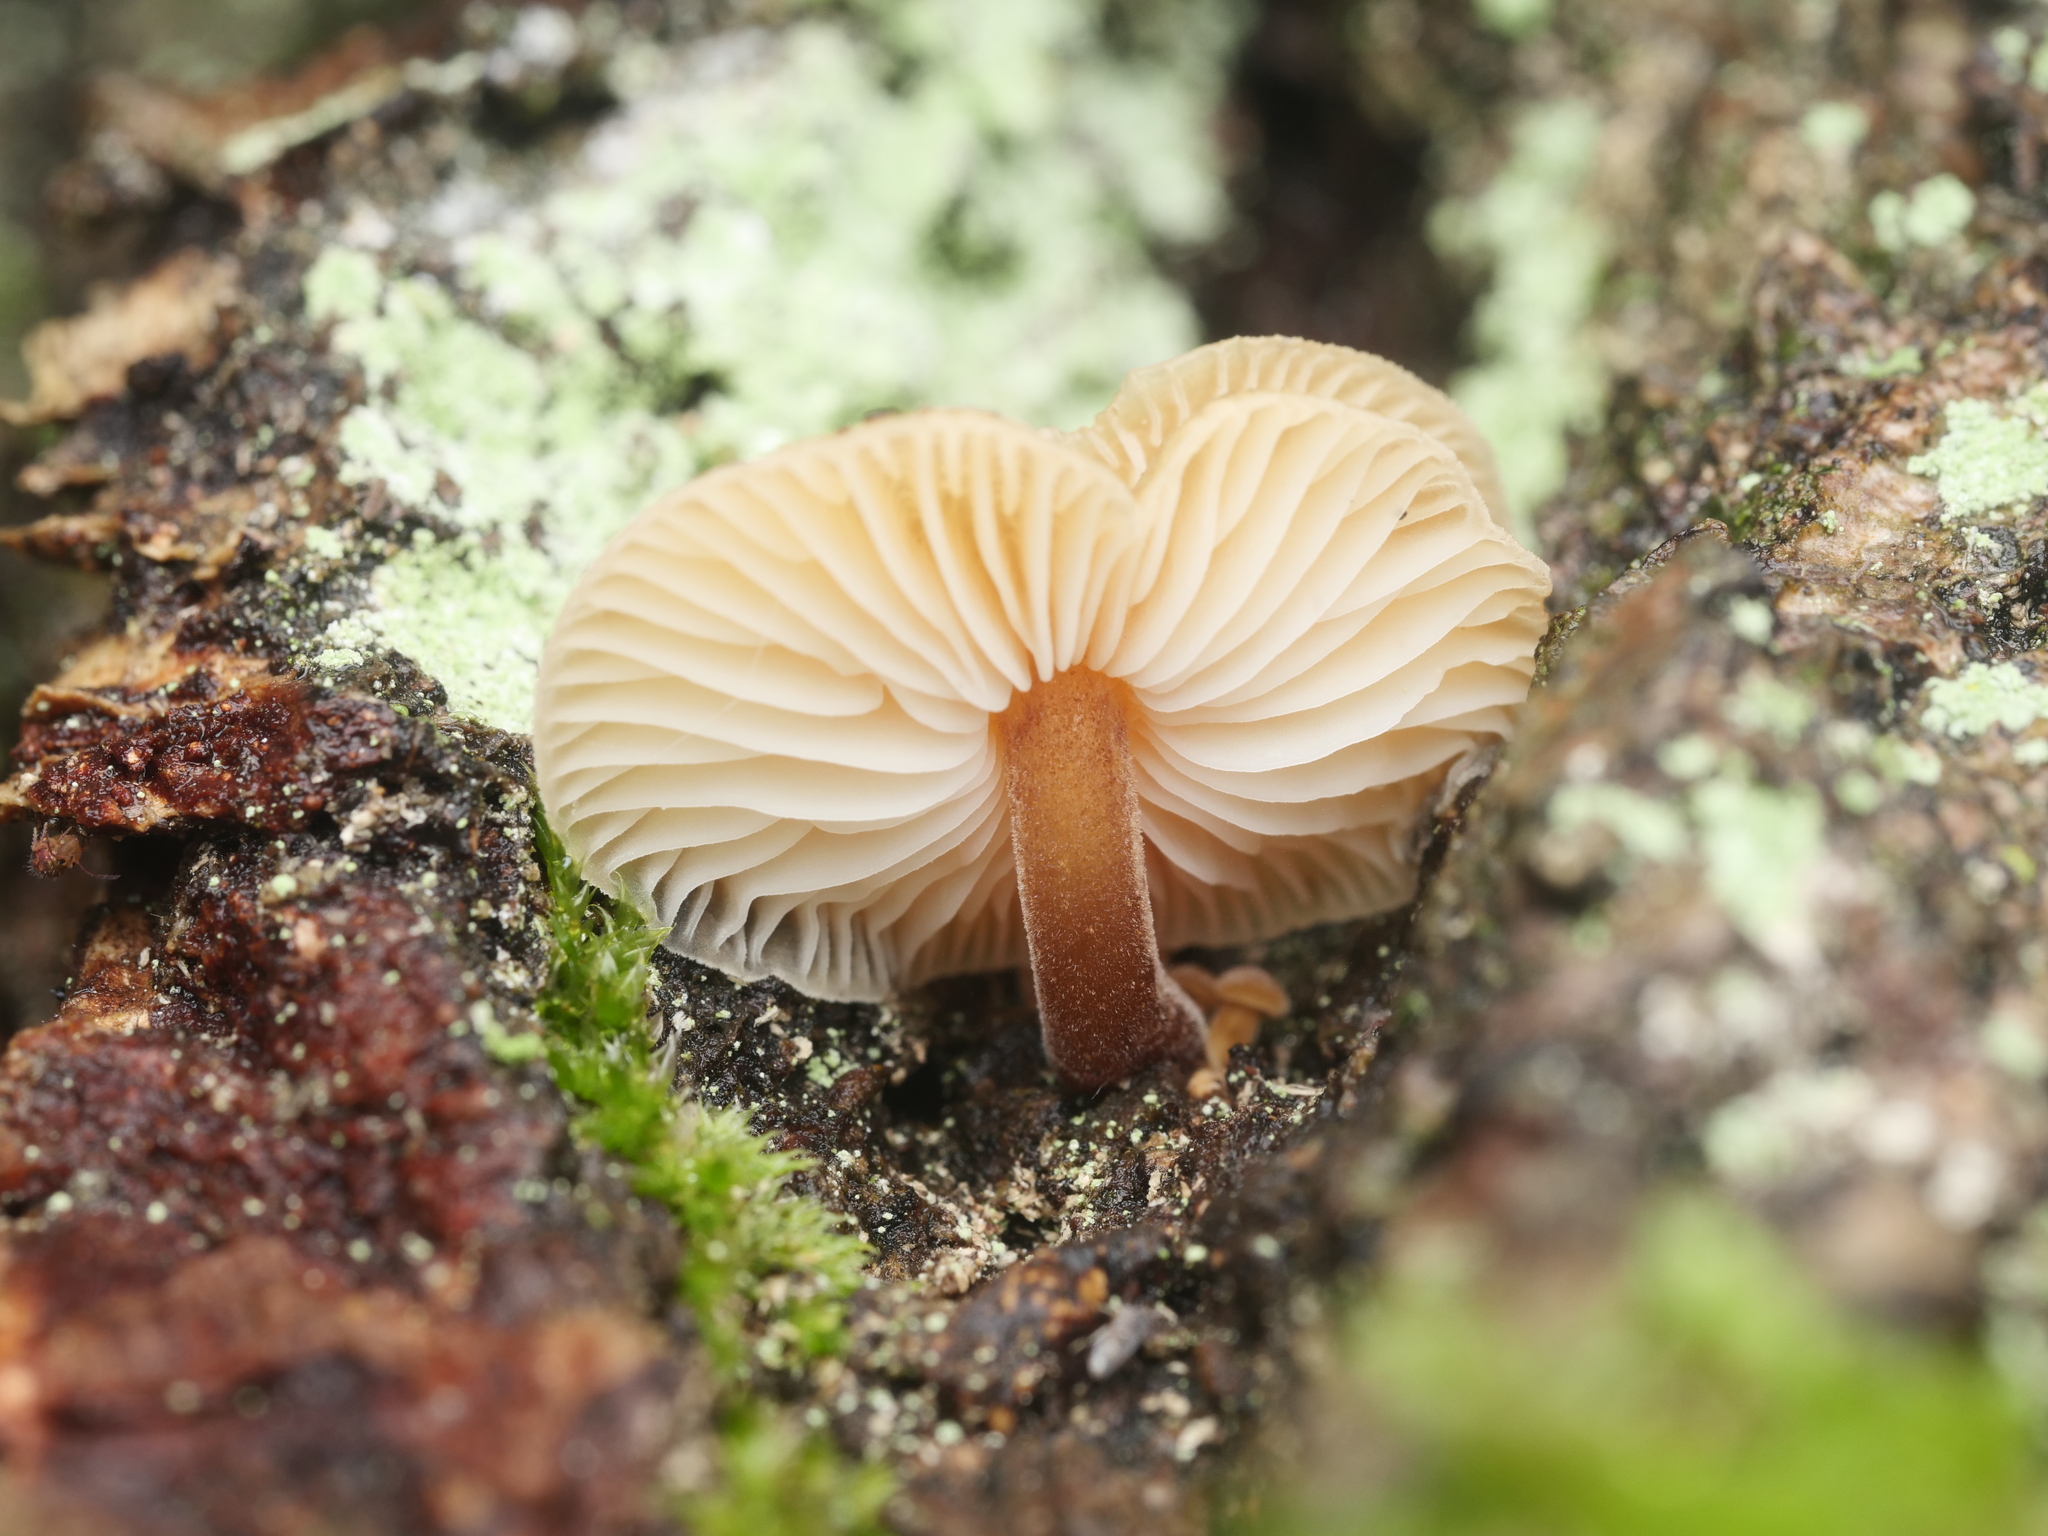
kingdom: Fungi
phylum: Basidiomycota
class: Agaricomycetes
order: Agaricales
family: Physalacriaceae
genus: Flammulina
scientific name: Flammulina
